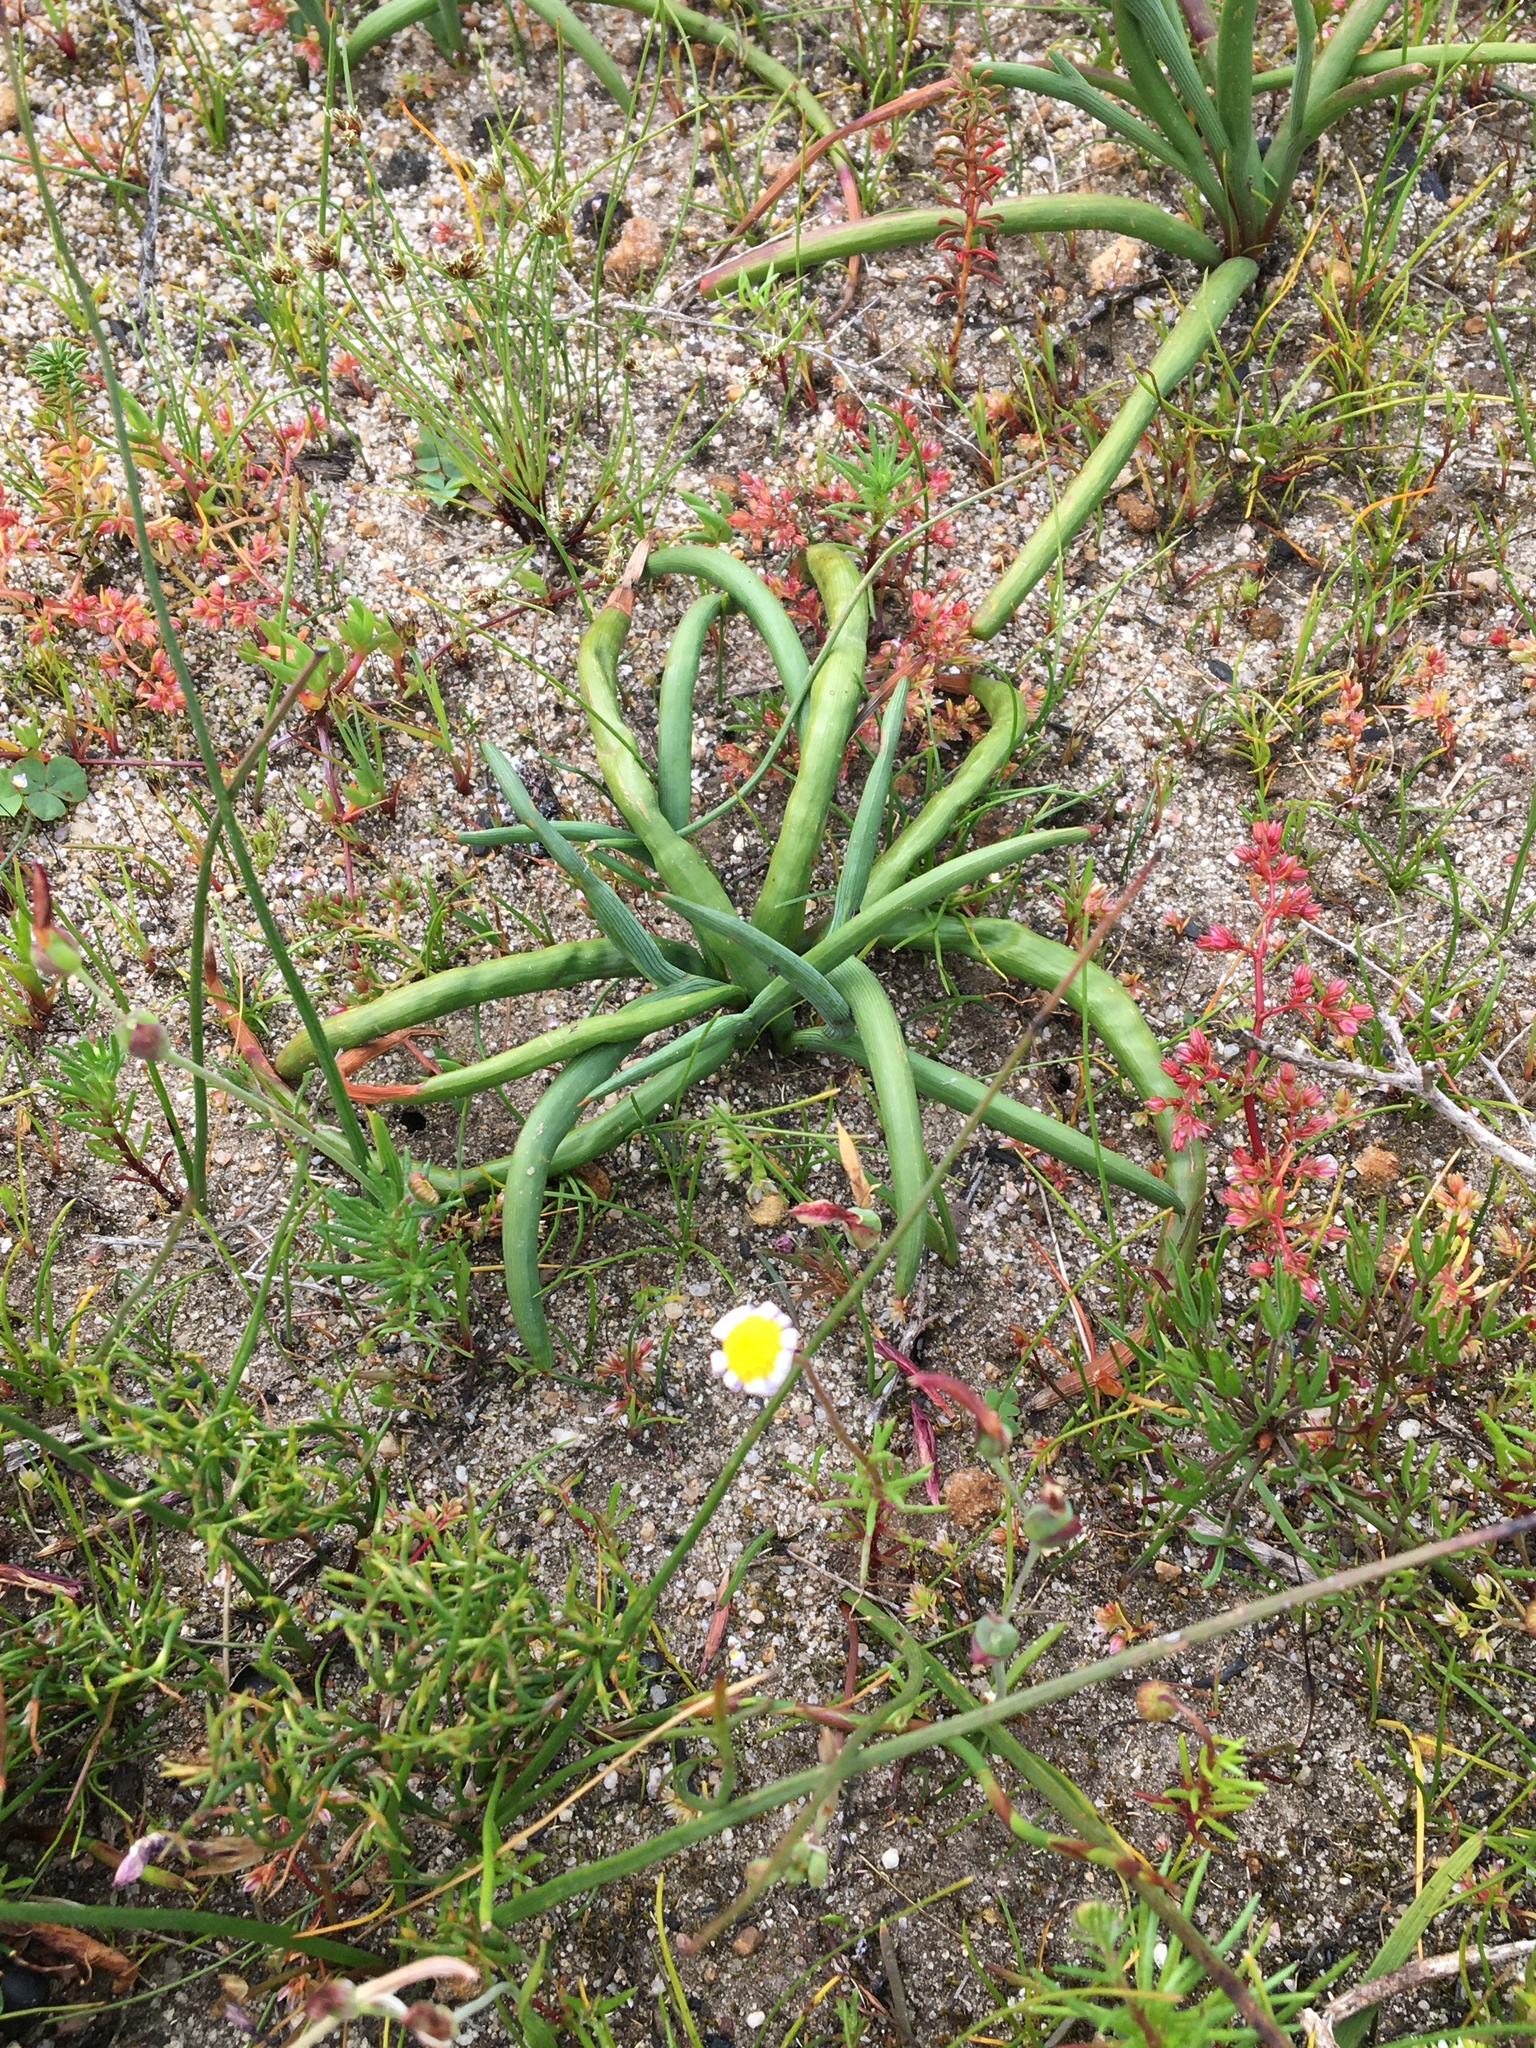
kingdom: Plantae
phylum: Tracheophyta
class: Liliopsida
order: Asparagales
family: Iridaceae
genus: Micranthus
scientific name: Micranthus tubulosus
